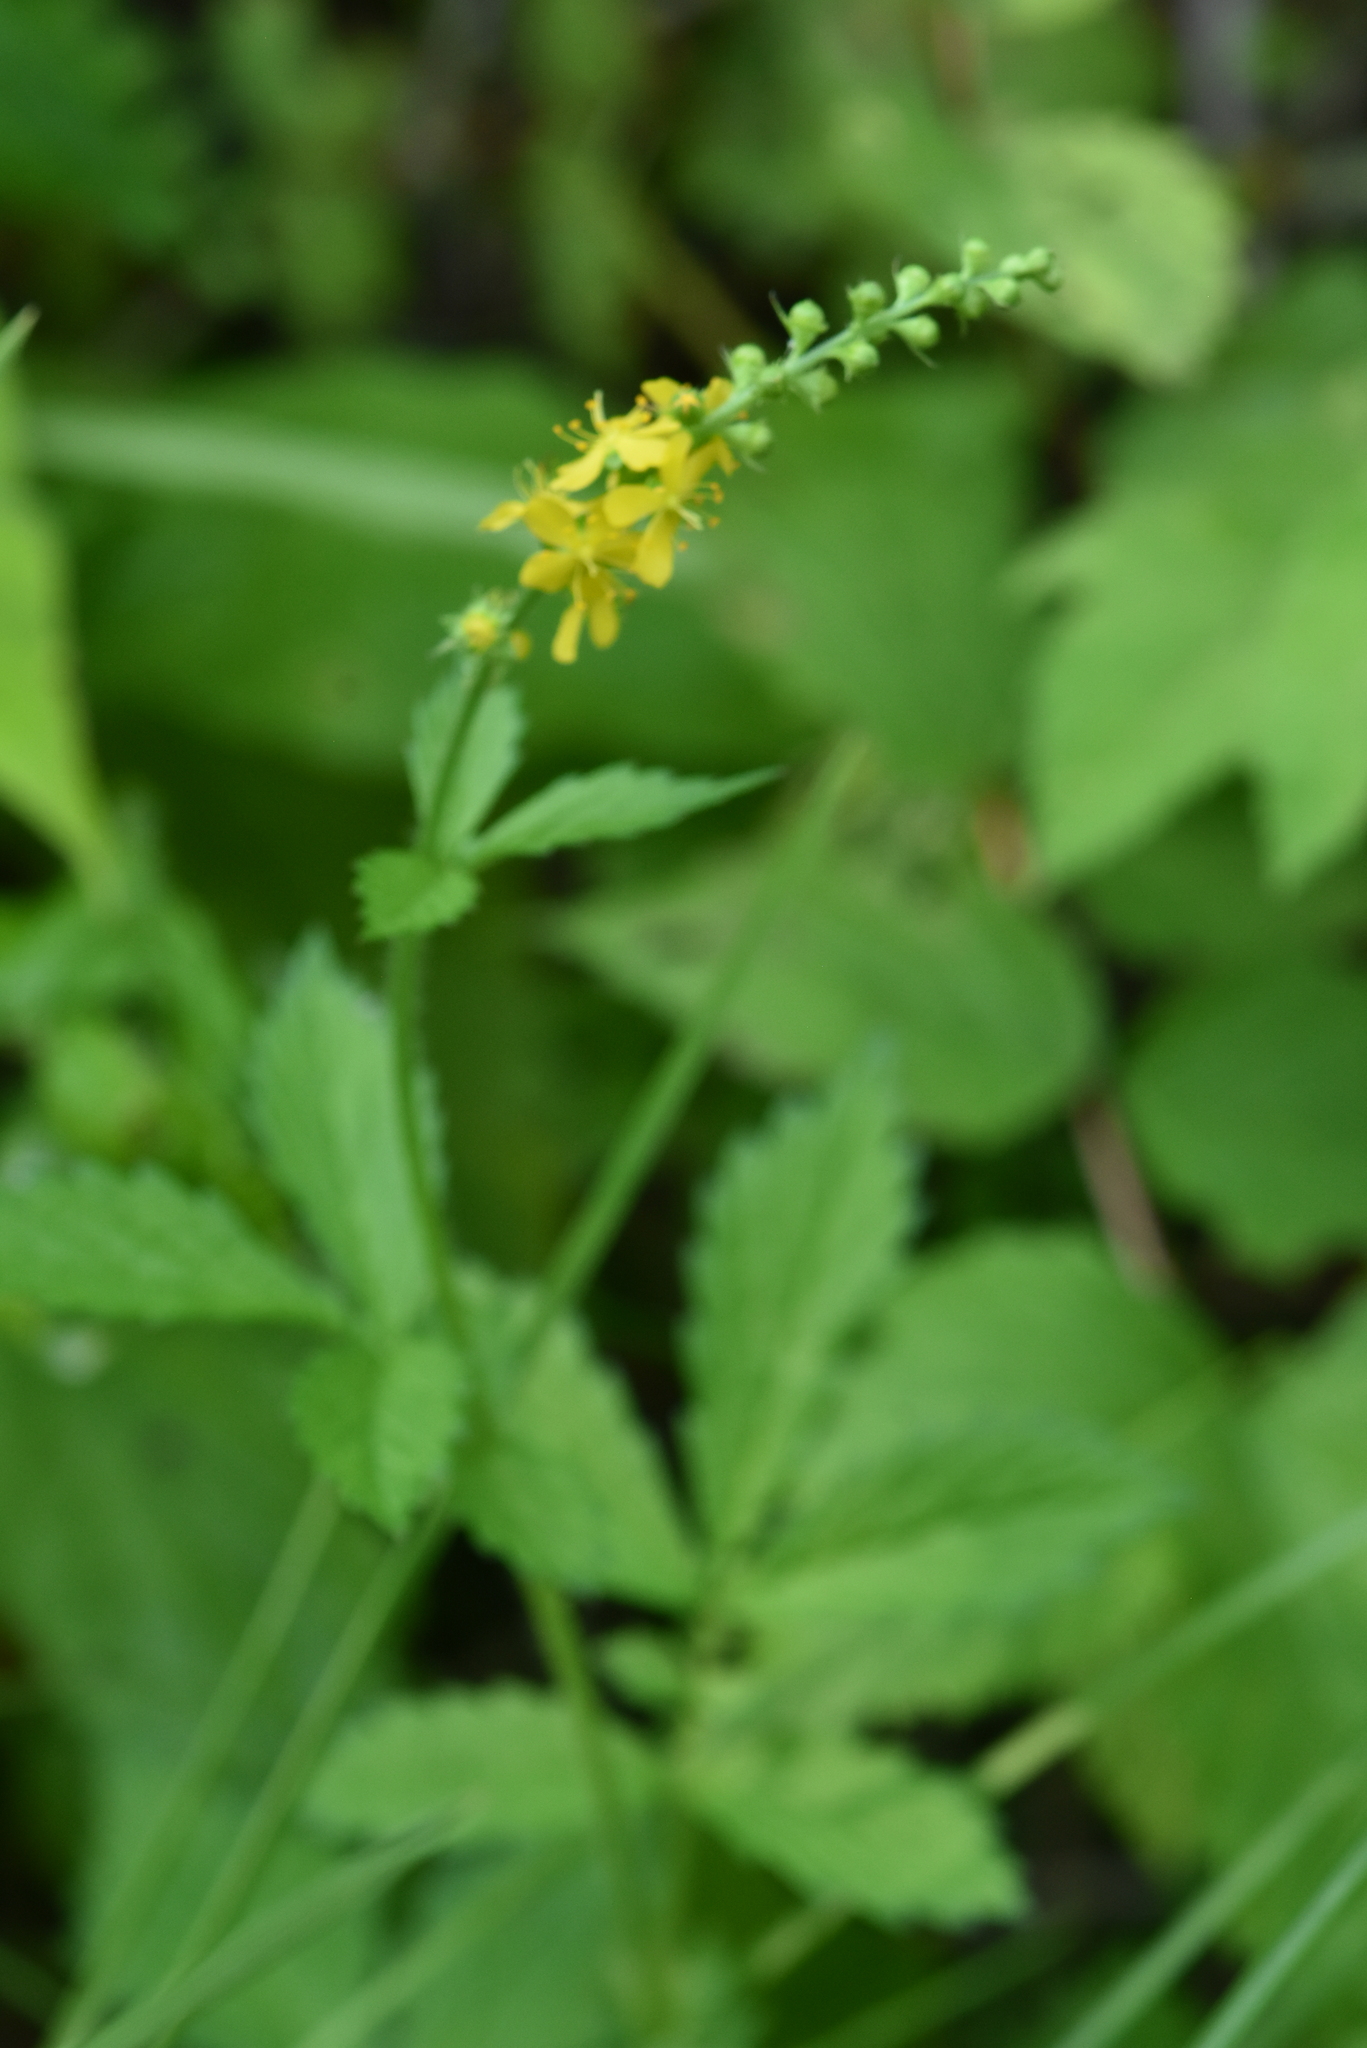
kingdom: Plantae
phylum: Tracheophyta
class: Magnoliopsida
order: Rosales
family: Rosaceae
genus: Agrimonia
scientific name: Agrimonia pilosa
